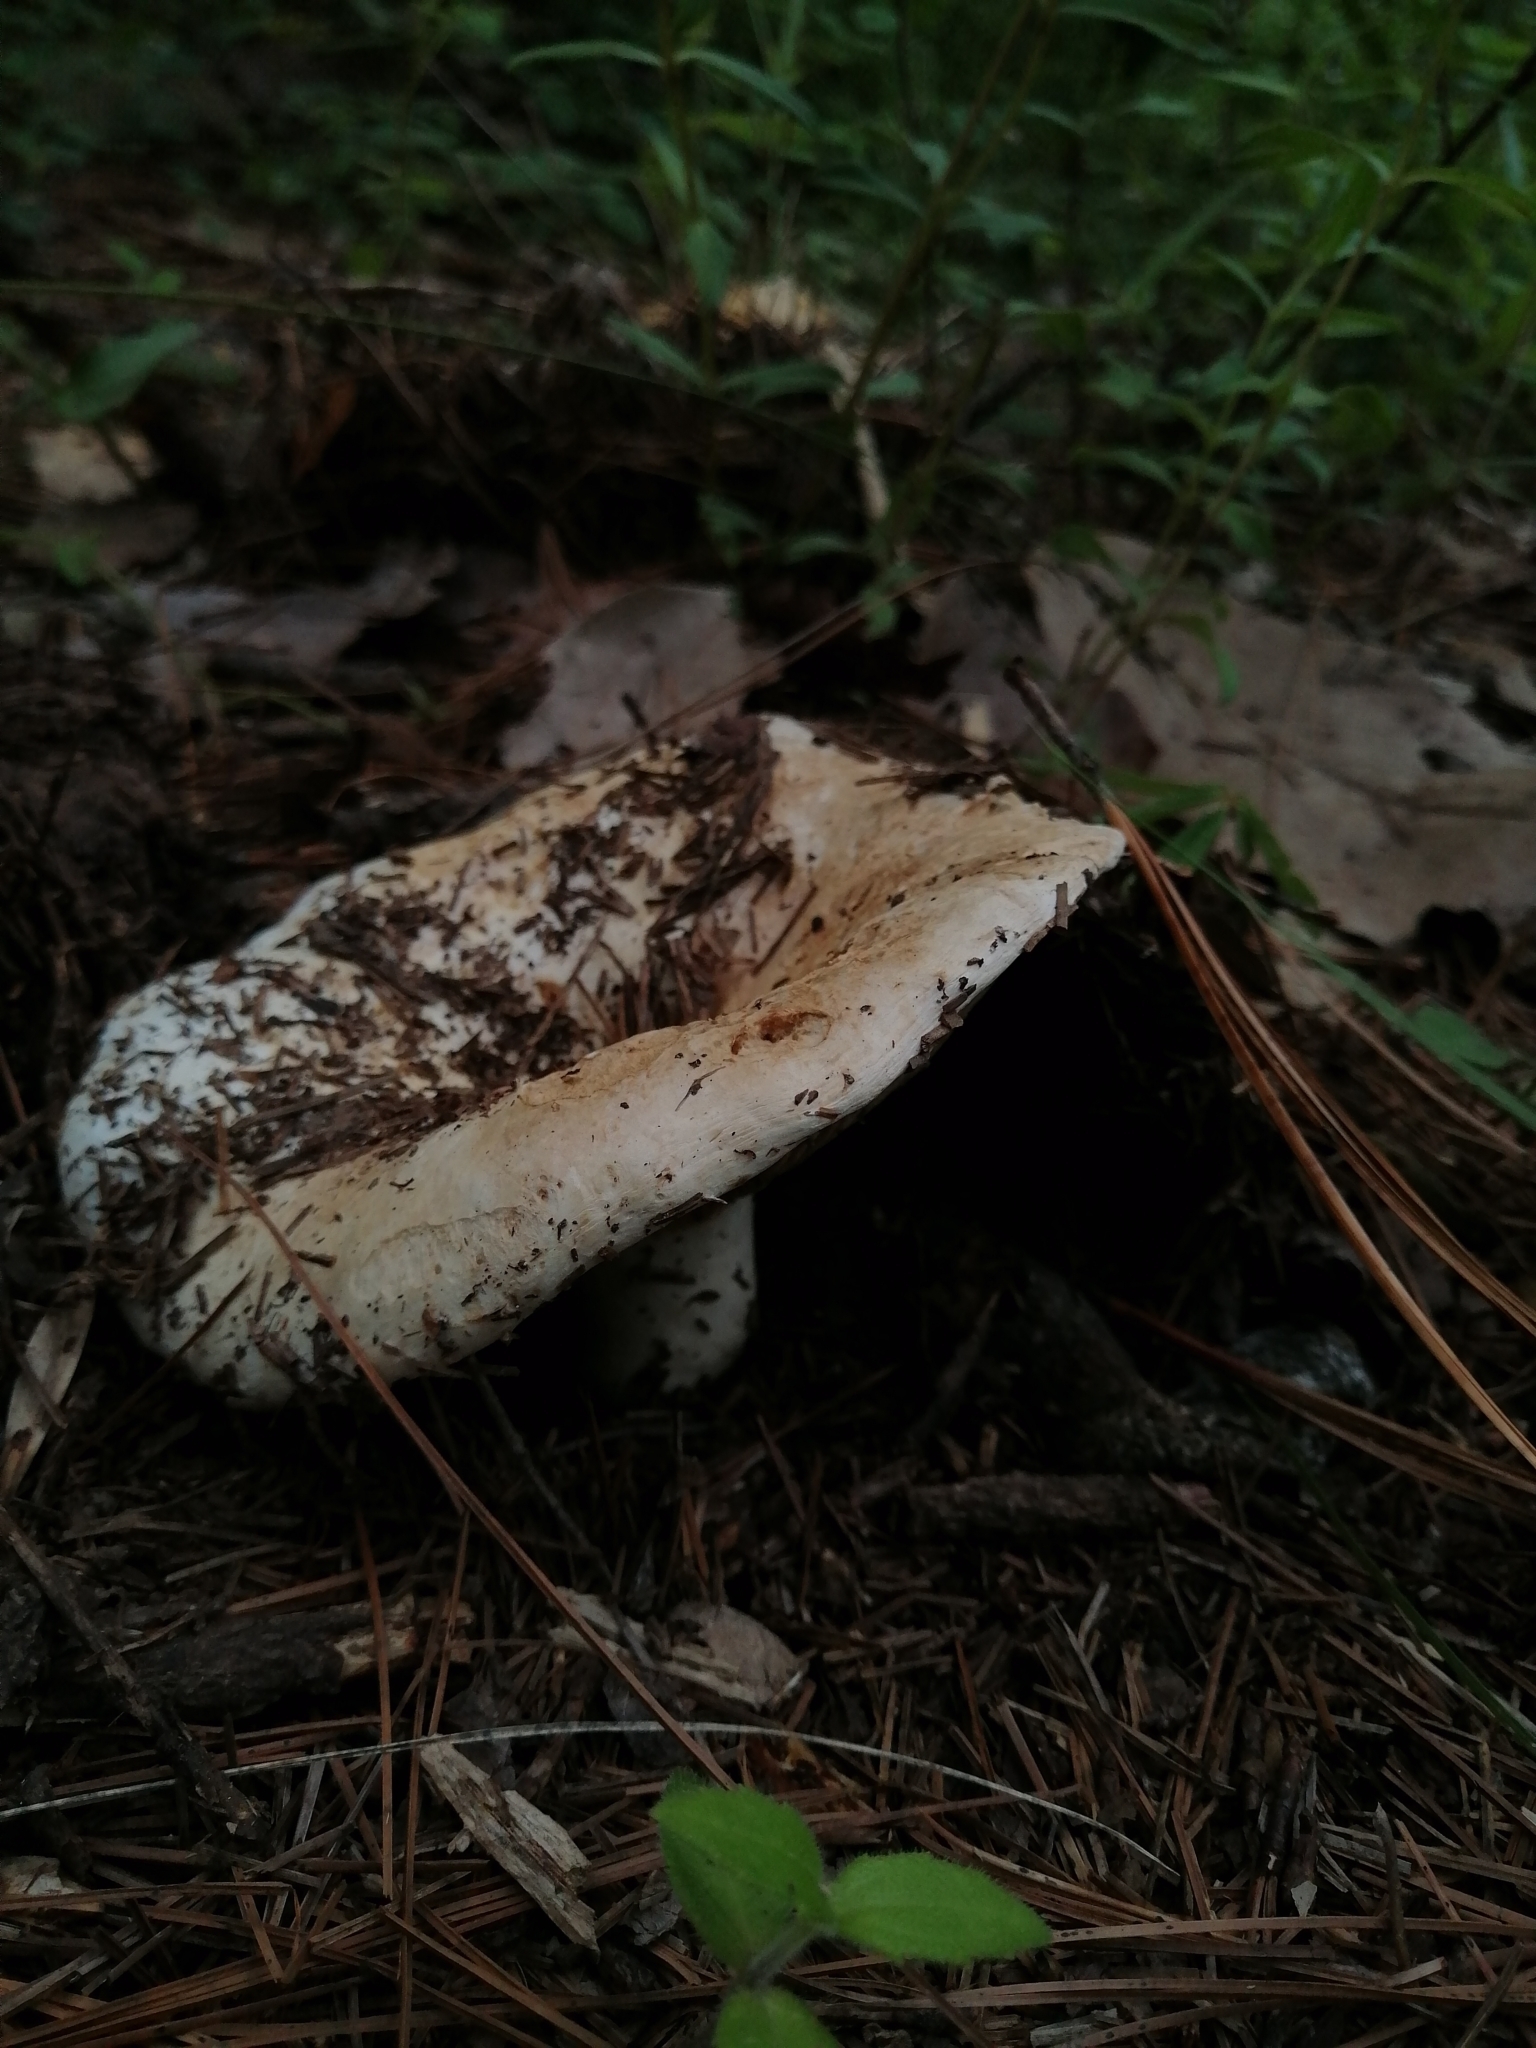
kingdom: Fungi
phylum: Basidiomycota
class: Agaricomycetes
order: Russulales
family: Russulaceae
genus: Russula
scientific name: Russula brevipes
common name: Short-stemmed russula
